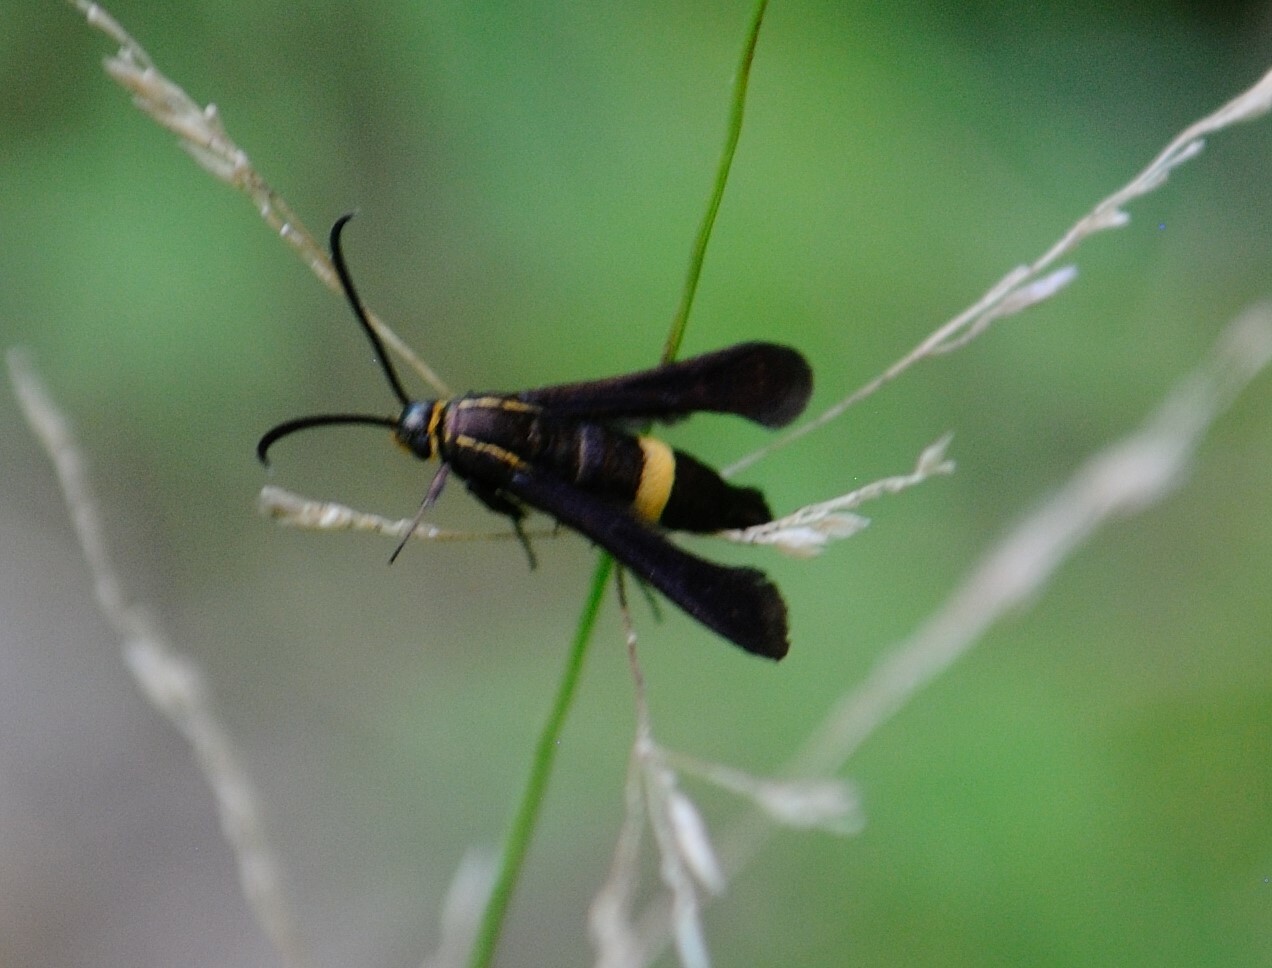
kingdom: Animalia
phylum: Arthropoda
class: Insecta
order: Lepidoptera
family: Sesiidae
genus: Carmenta
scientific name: Carmenta pyralidiformis
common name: Boneset borer moth
